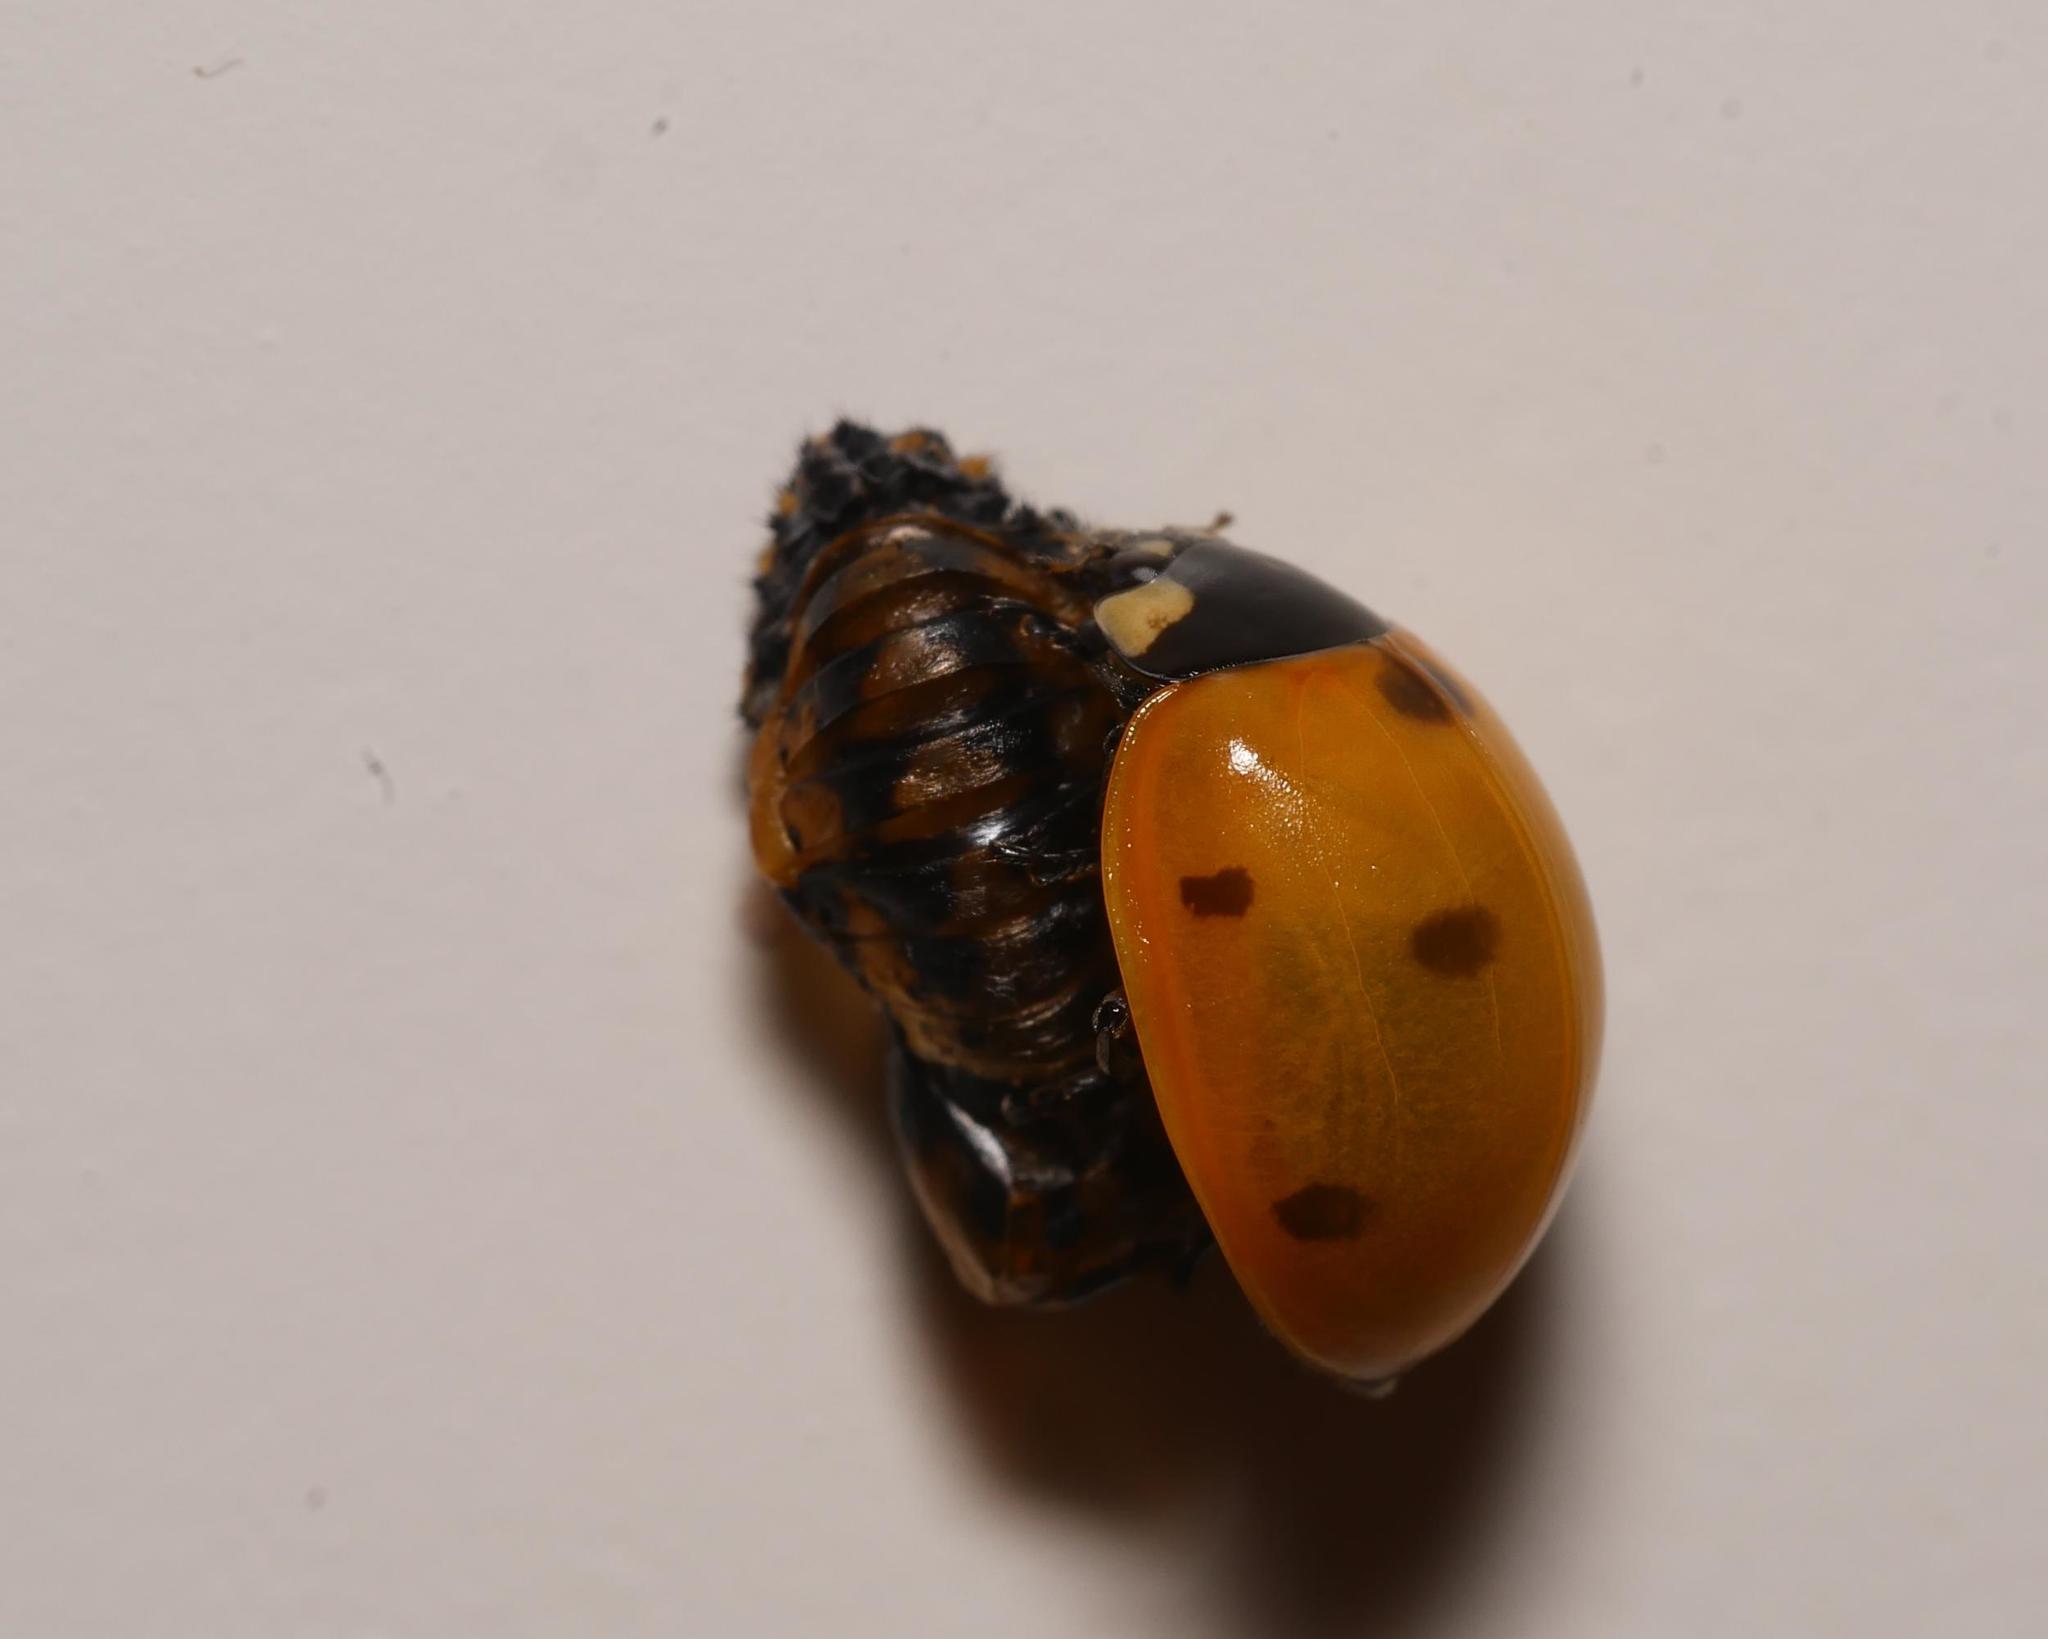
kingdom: Animalia
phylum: Arthropoda
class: Insecta
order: Coleoptera
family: Coccinellidae
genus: Coccinella
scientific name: Coccinella septempunctata
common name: Sevenspotted lady beetle
